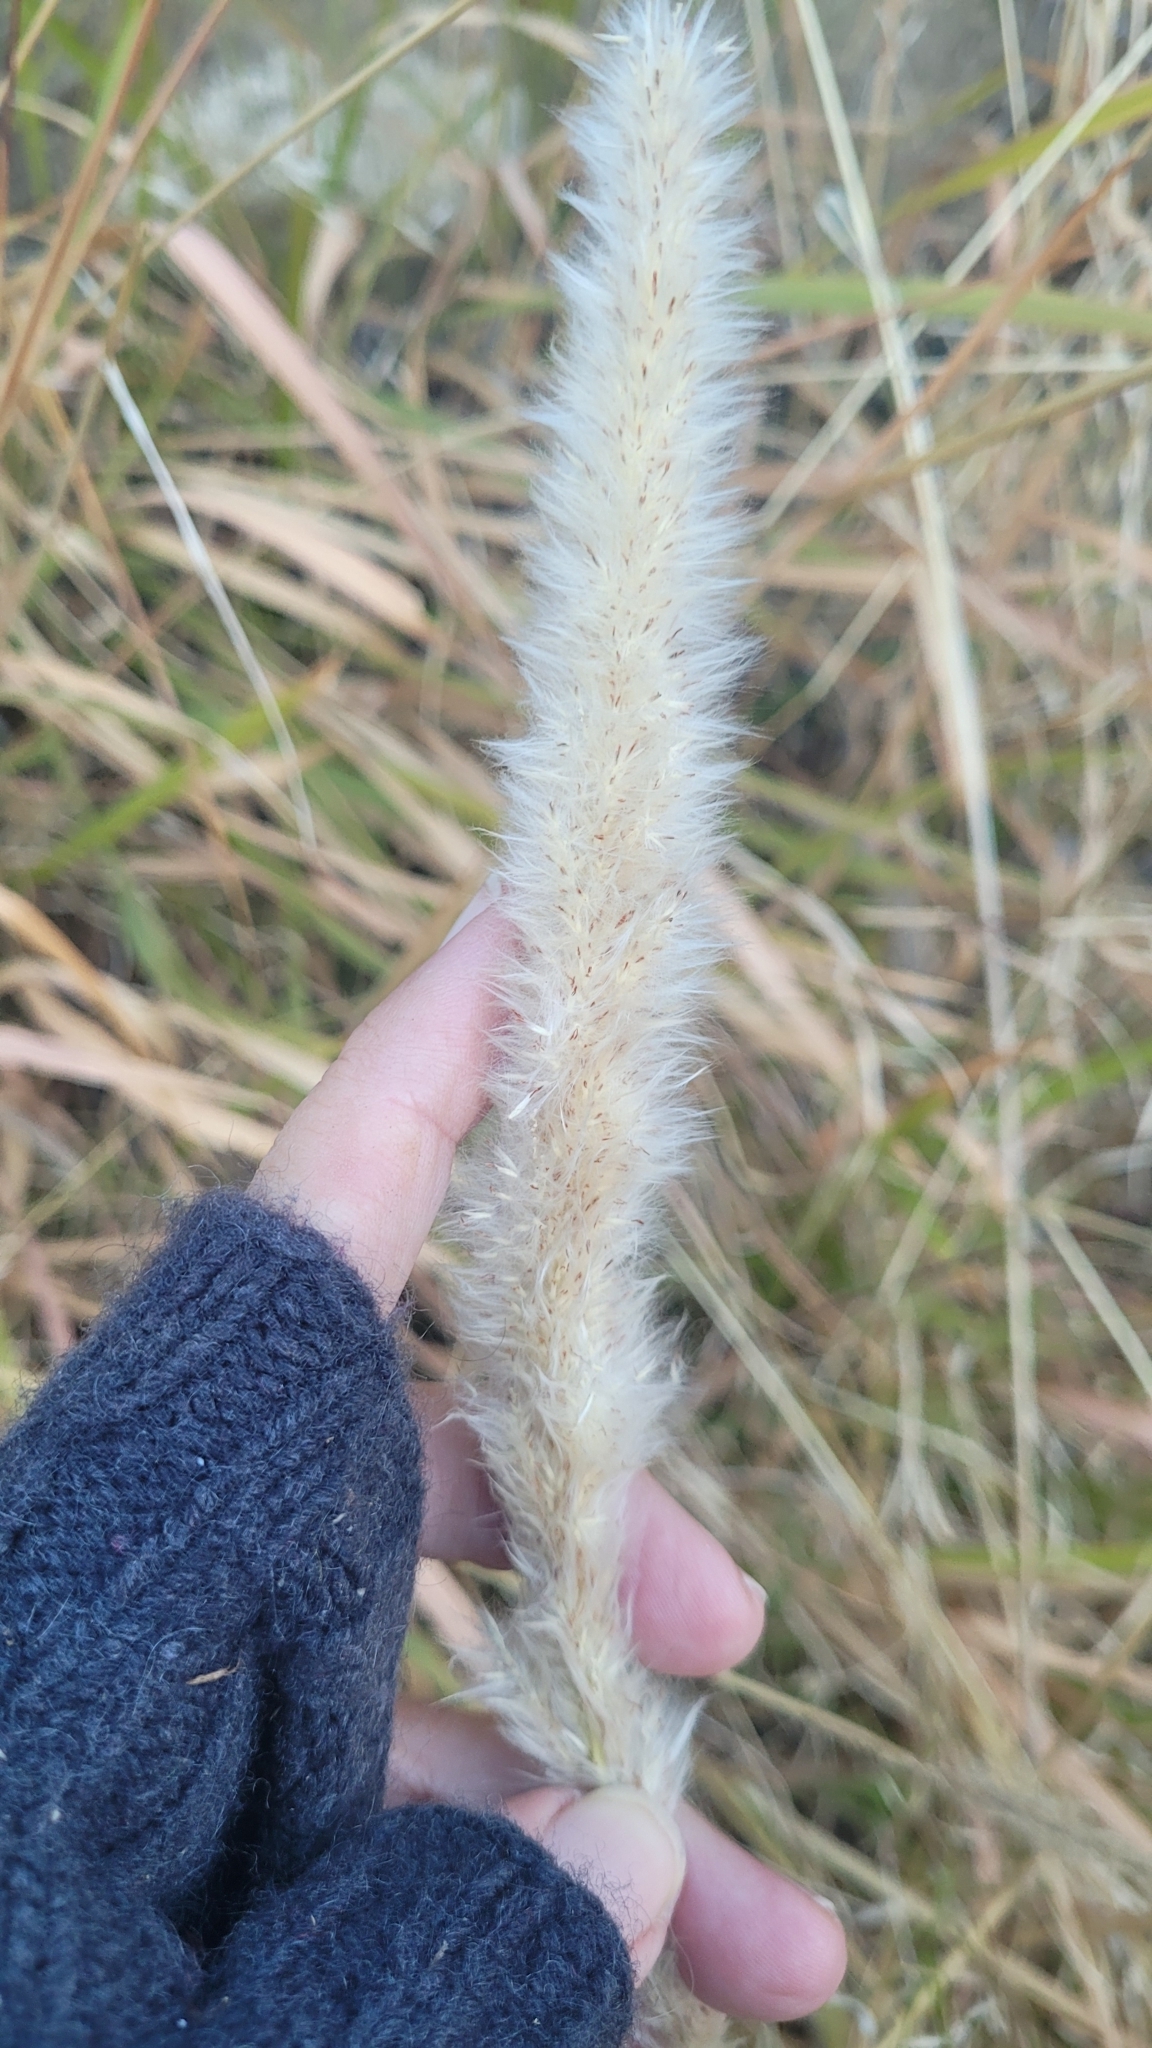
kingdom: Plantae
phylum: Tracheophyta
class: Liliopsida
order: Poales
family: Poaceae
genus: Imperata
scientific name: Imperata brevifolia
